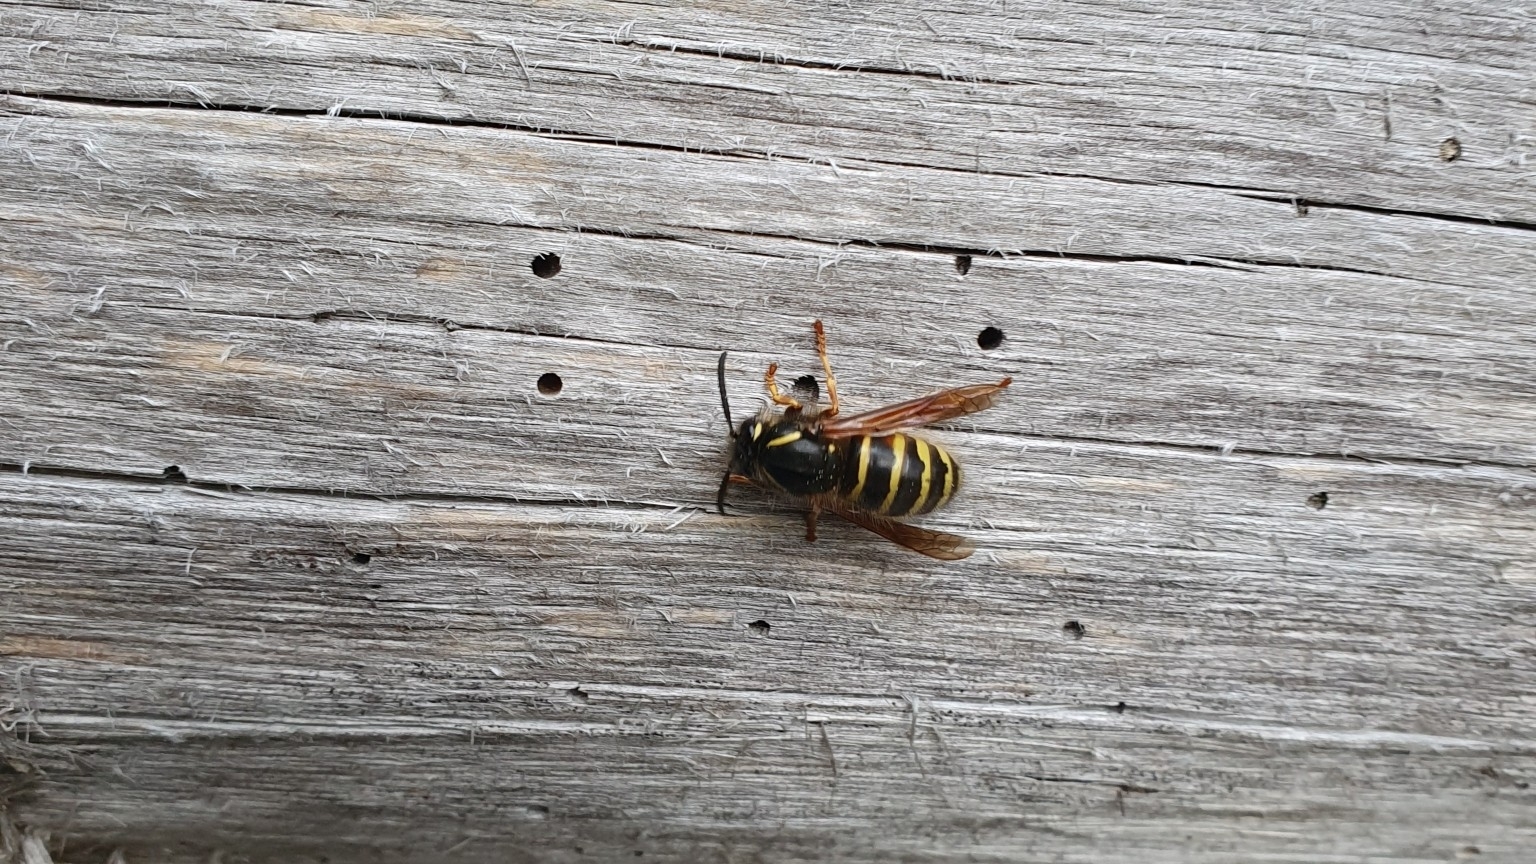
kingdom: Animalia
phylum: Arthropoda
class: Insecta
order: Hymenoptera
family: Vespidae
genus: Dolichovespula
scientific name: Dolichovespula norwegica
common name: Norwegian wasp
